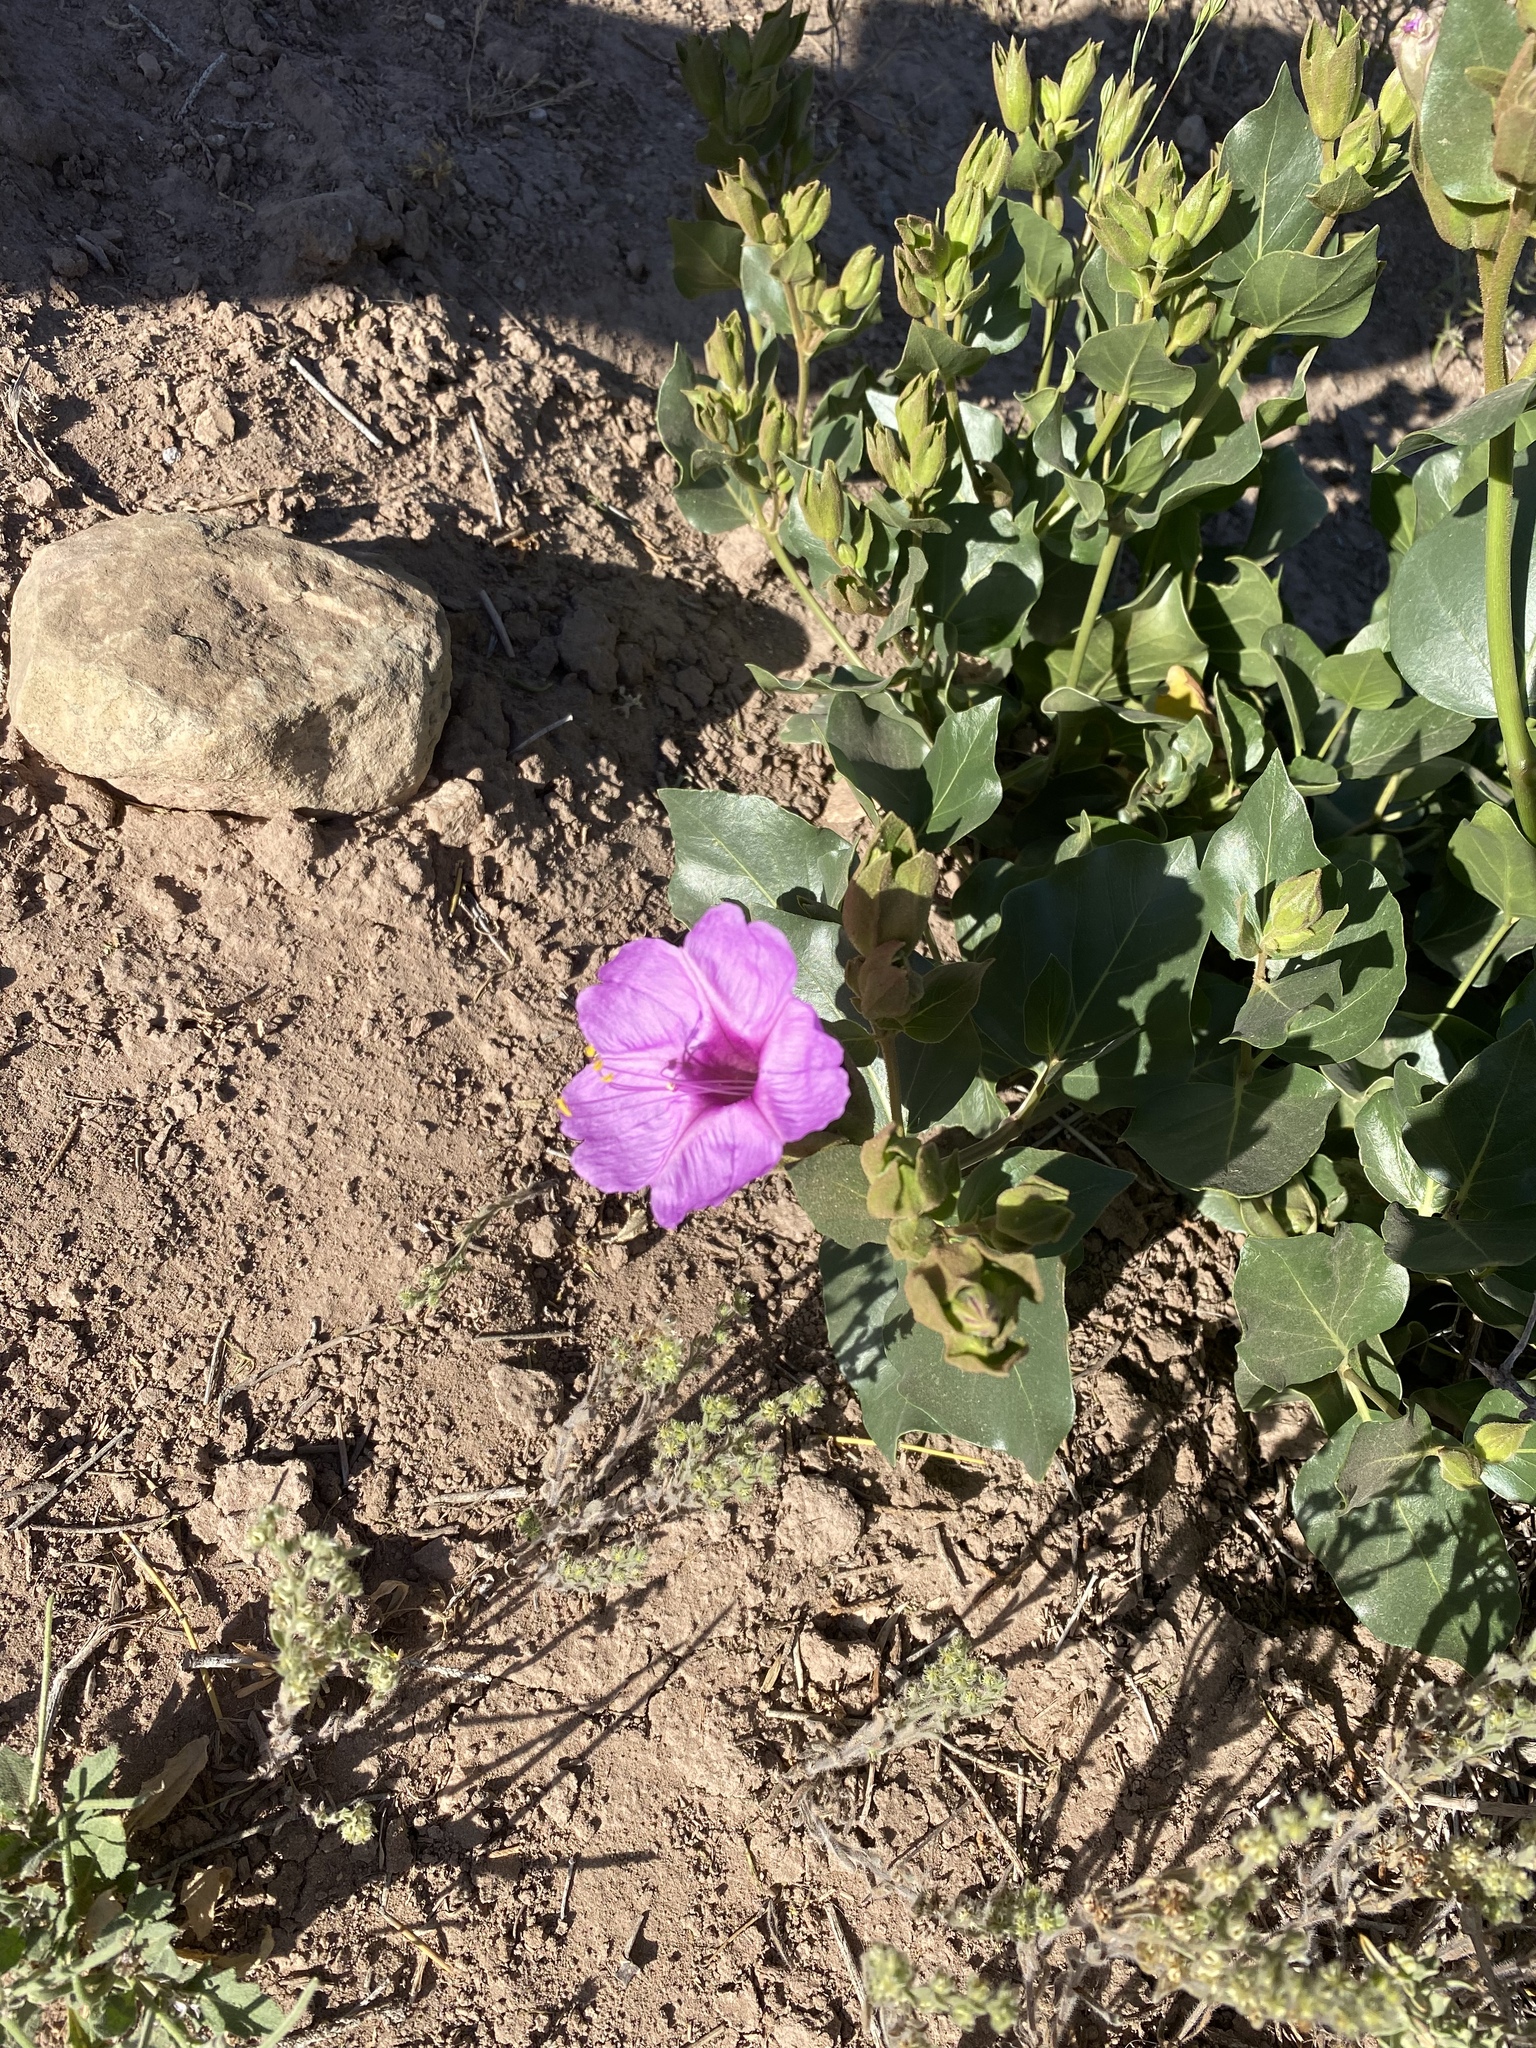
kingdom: Plantae
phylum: Tracheophyta
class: Magnoliopsida
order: Caryophyllales
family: Nyctaginaceae
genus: Mirabilis
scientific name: Mirabilis multiflora
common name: Froebel's four-o'clock
